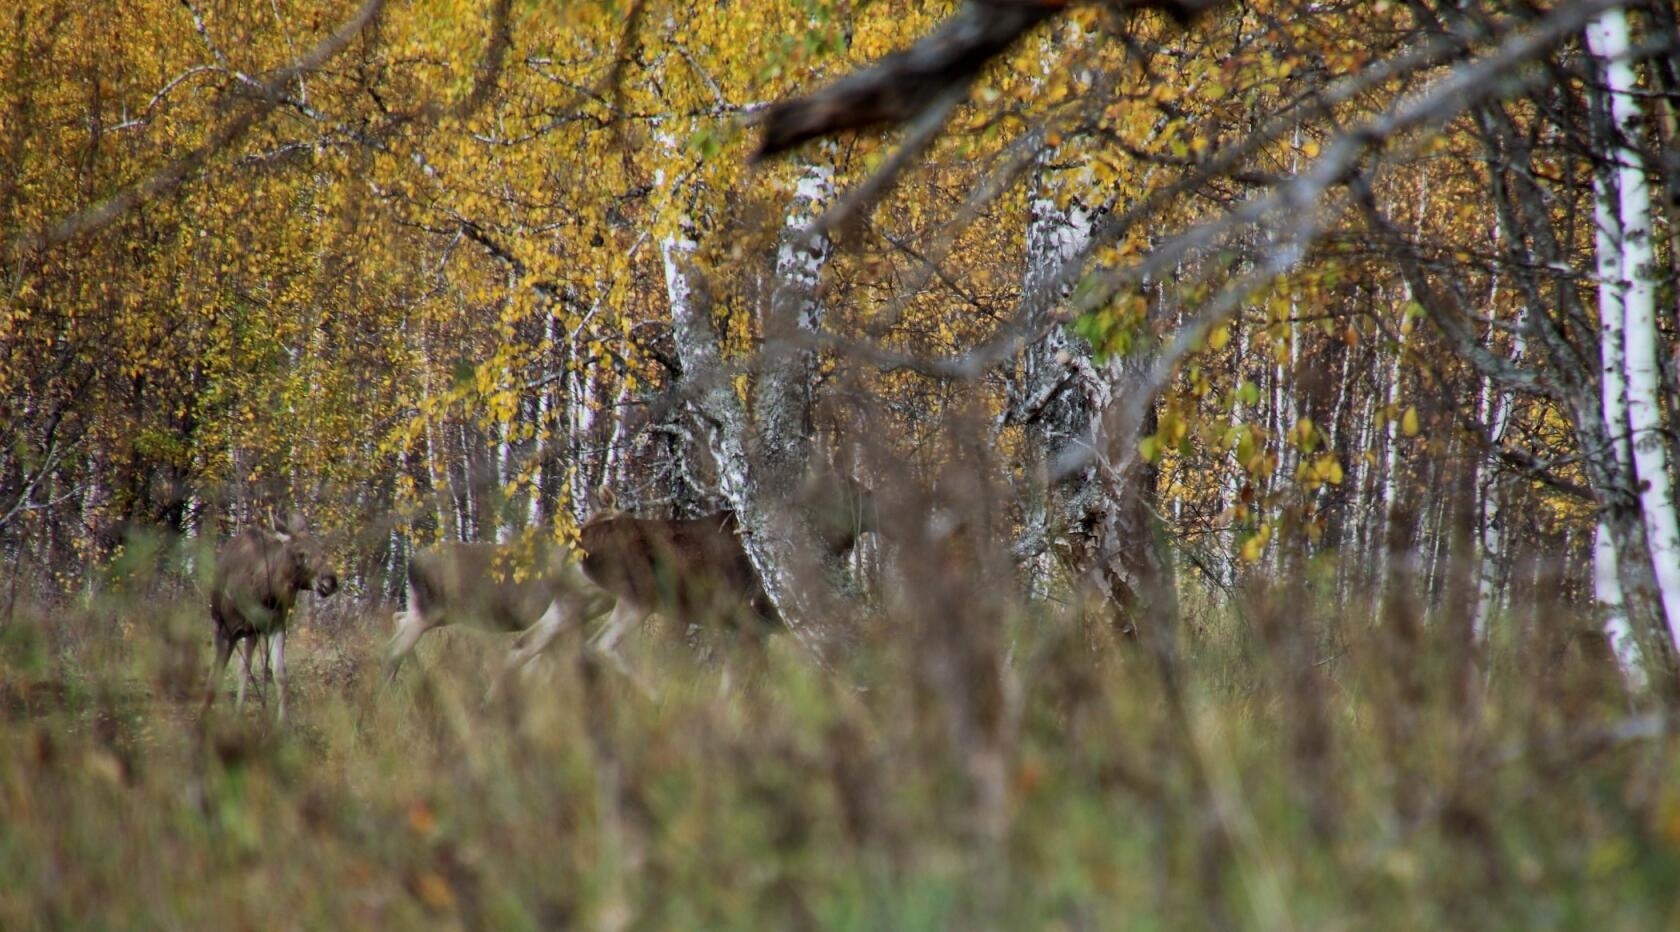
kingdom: Animalia
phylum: Chordata
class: Mammalia
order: Artiodactyla
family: Cervidae
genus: Alces
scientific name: Alces alces
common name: Moose
